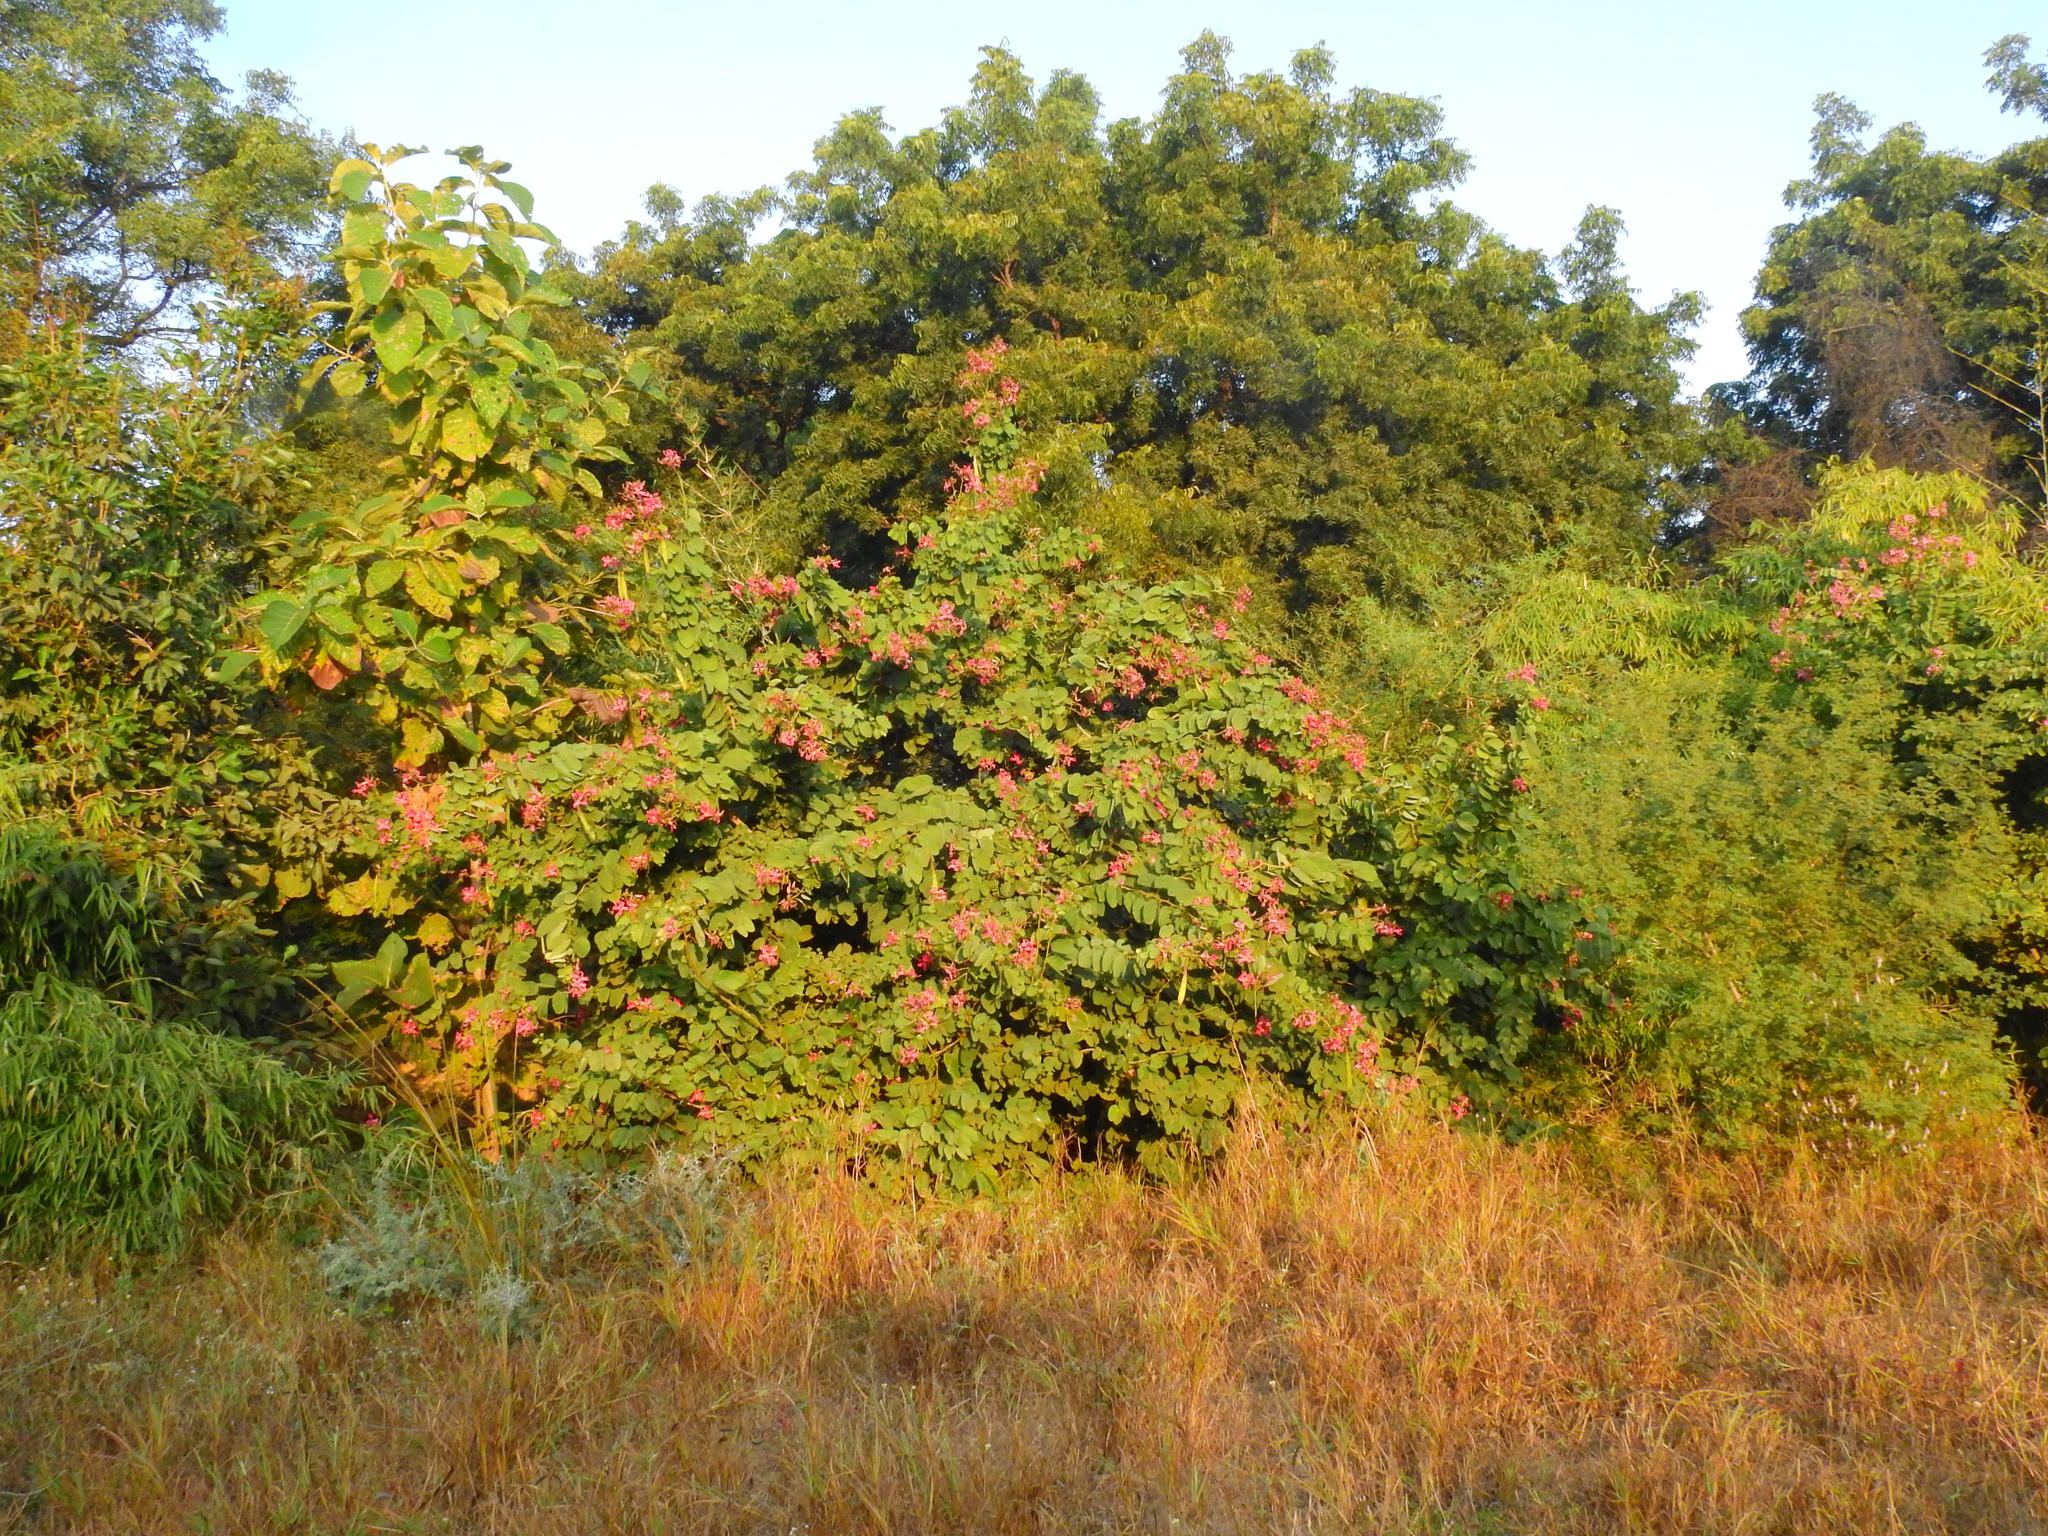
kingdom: Plantae
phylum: Tracheophyta
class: Magnoliopsida
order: Fabales
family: Fabaceae
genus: Bauhinia
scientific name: Bauhinia purpurea
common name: Butterfly-tree
